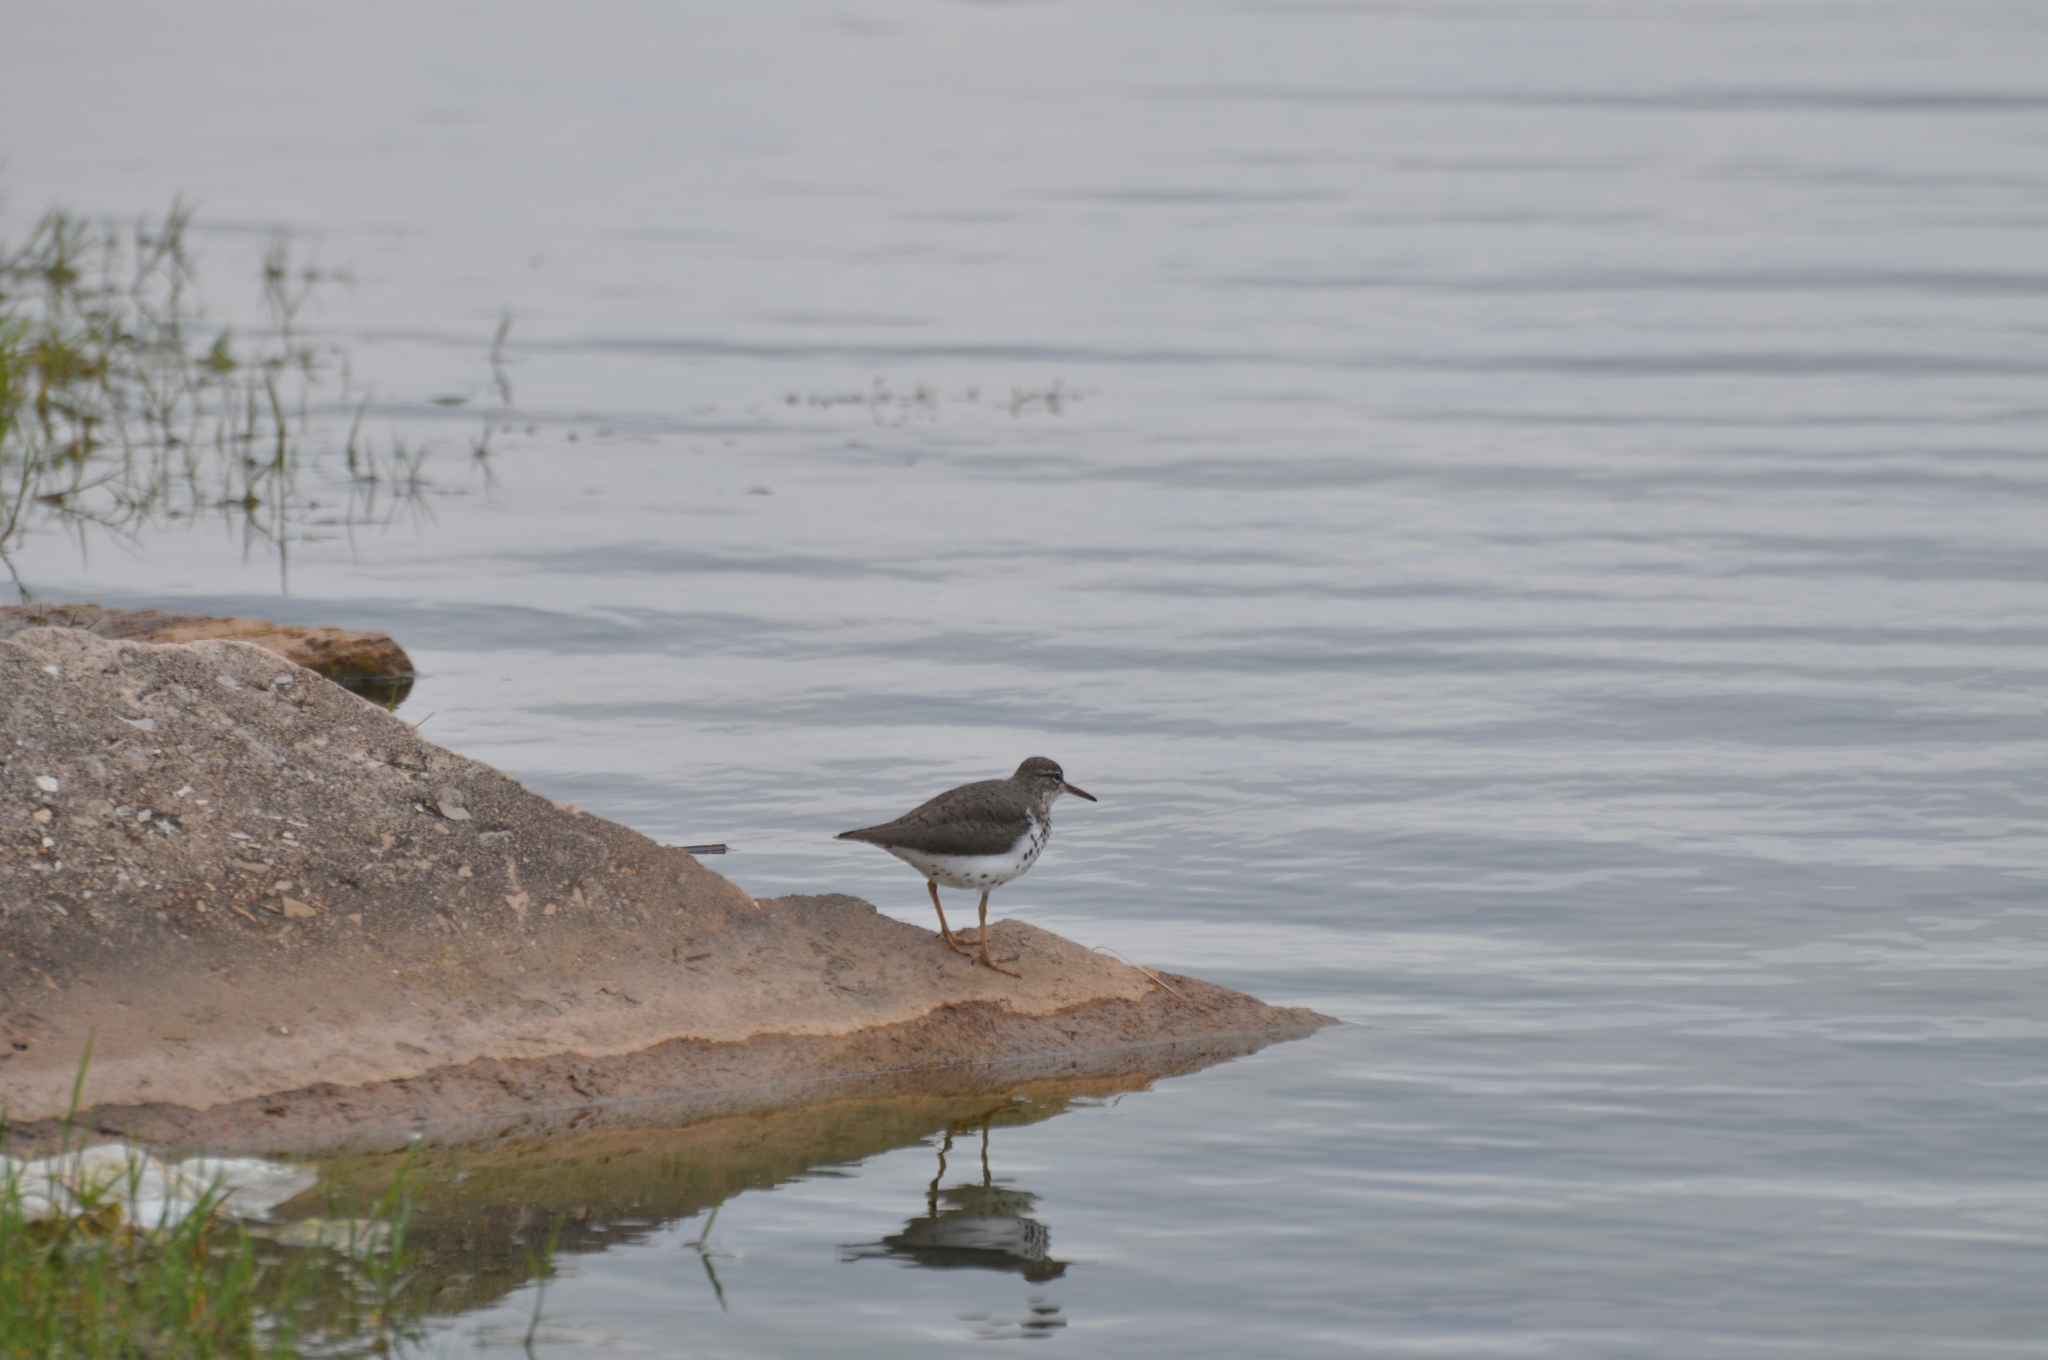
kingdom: Animalia
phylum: Chordata
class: Aves
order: Charadriiformes
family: Scolopacidae
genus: Actitis
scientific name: Actitis macularius
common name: Spotted sandpiper
